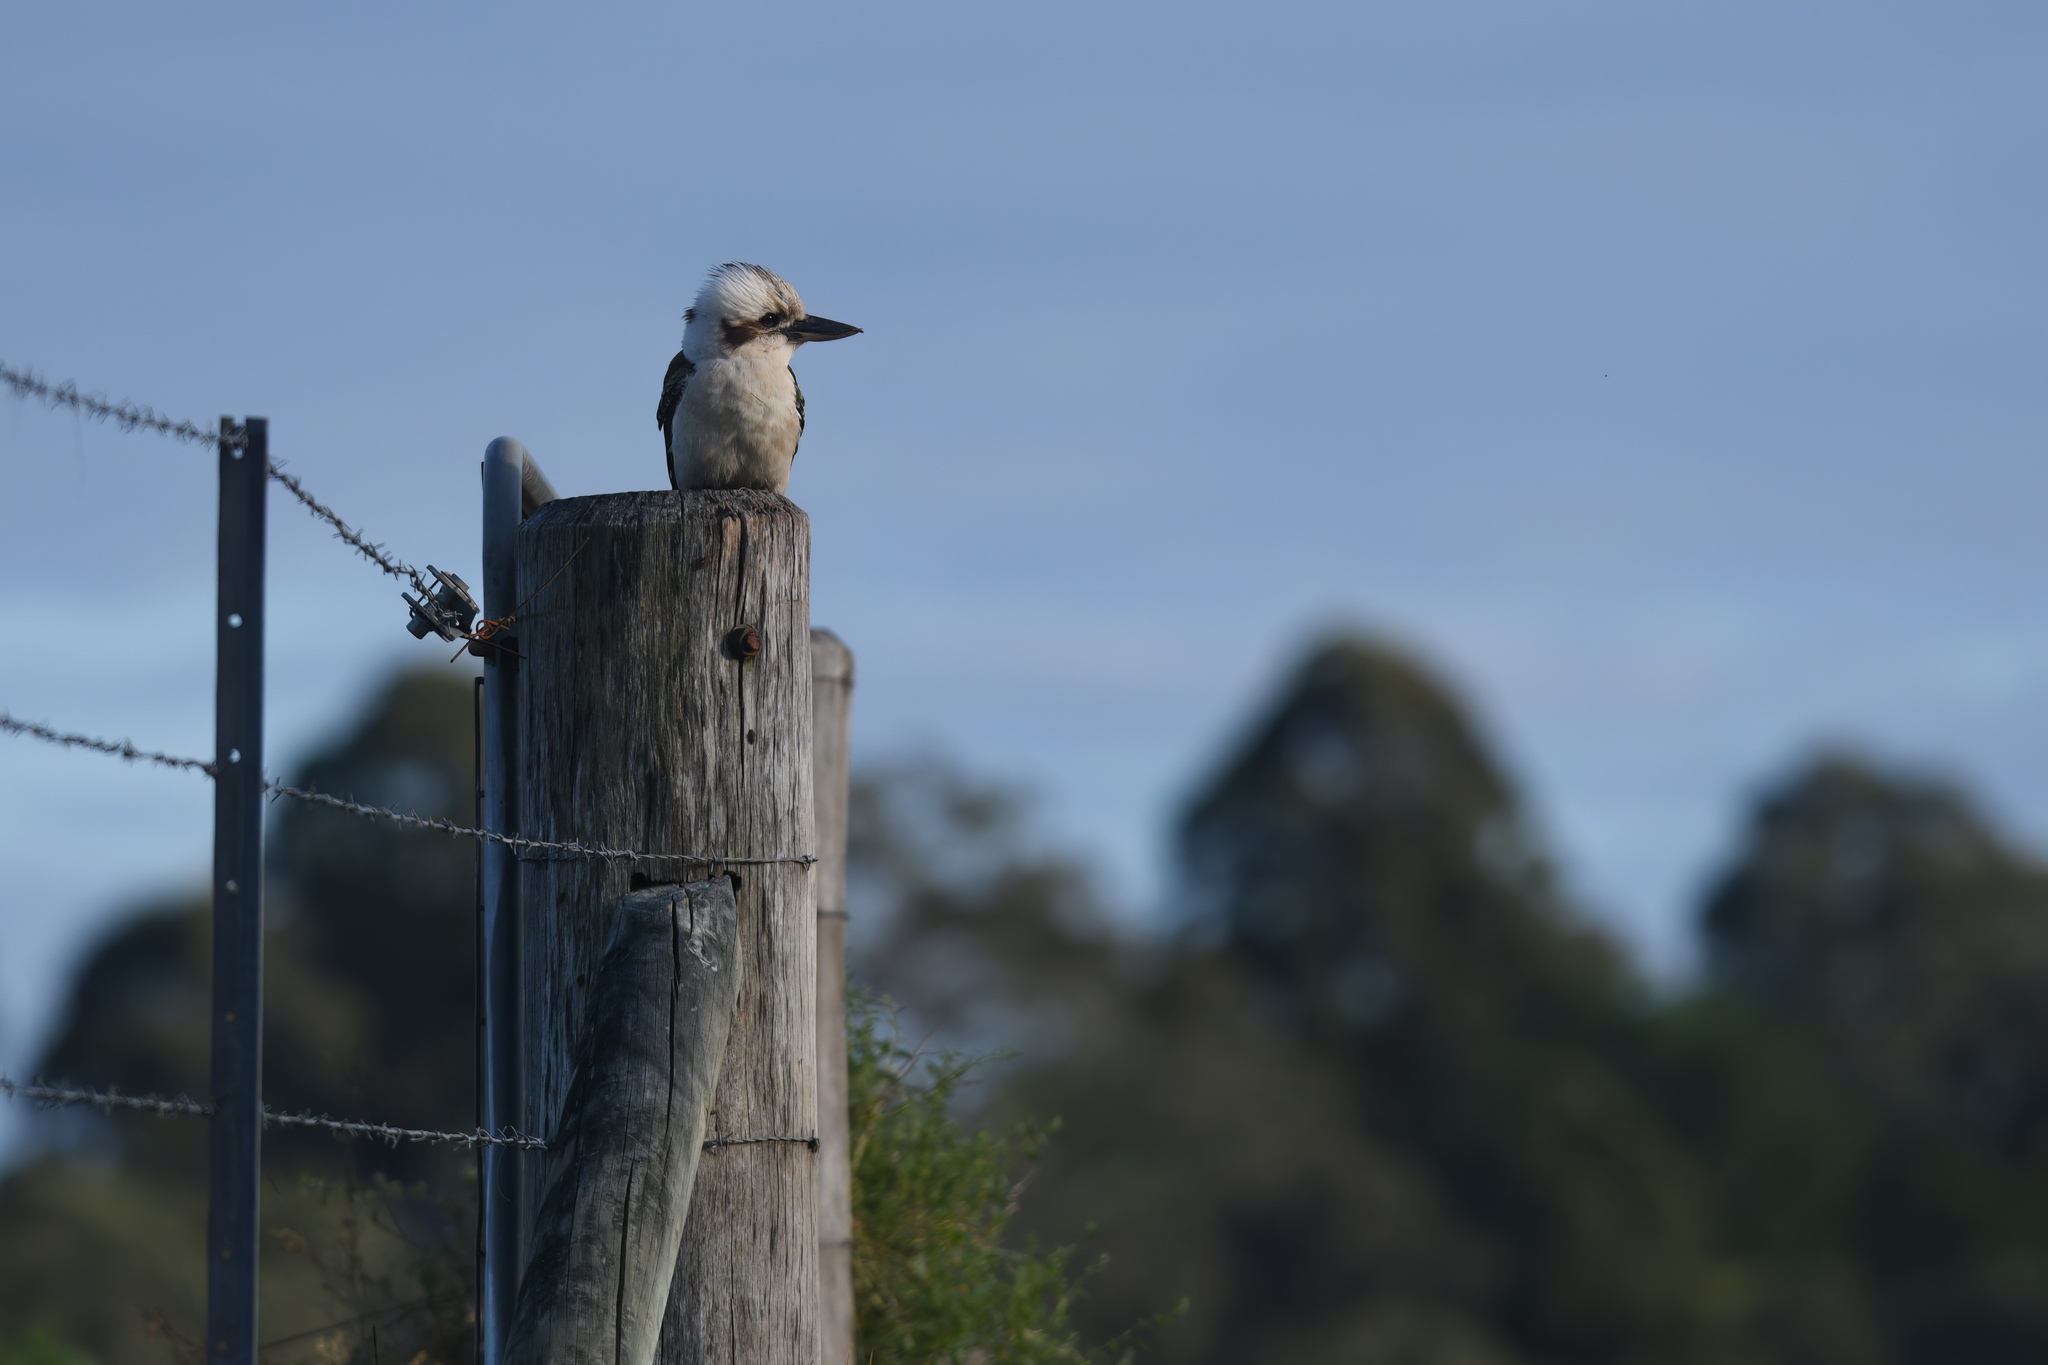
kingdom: Animalia
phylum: Chordata
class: Aves
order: Coraciiformes
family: Alcedinidae
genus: Dacelo
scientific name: Dacelo novaeguineae
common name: Laughing kookaburra
